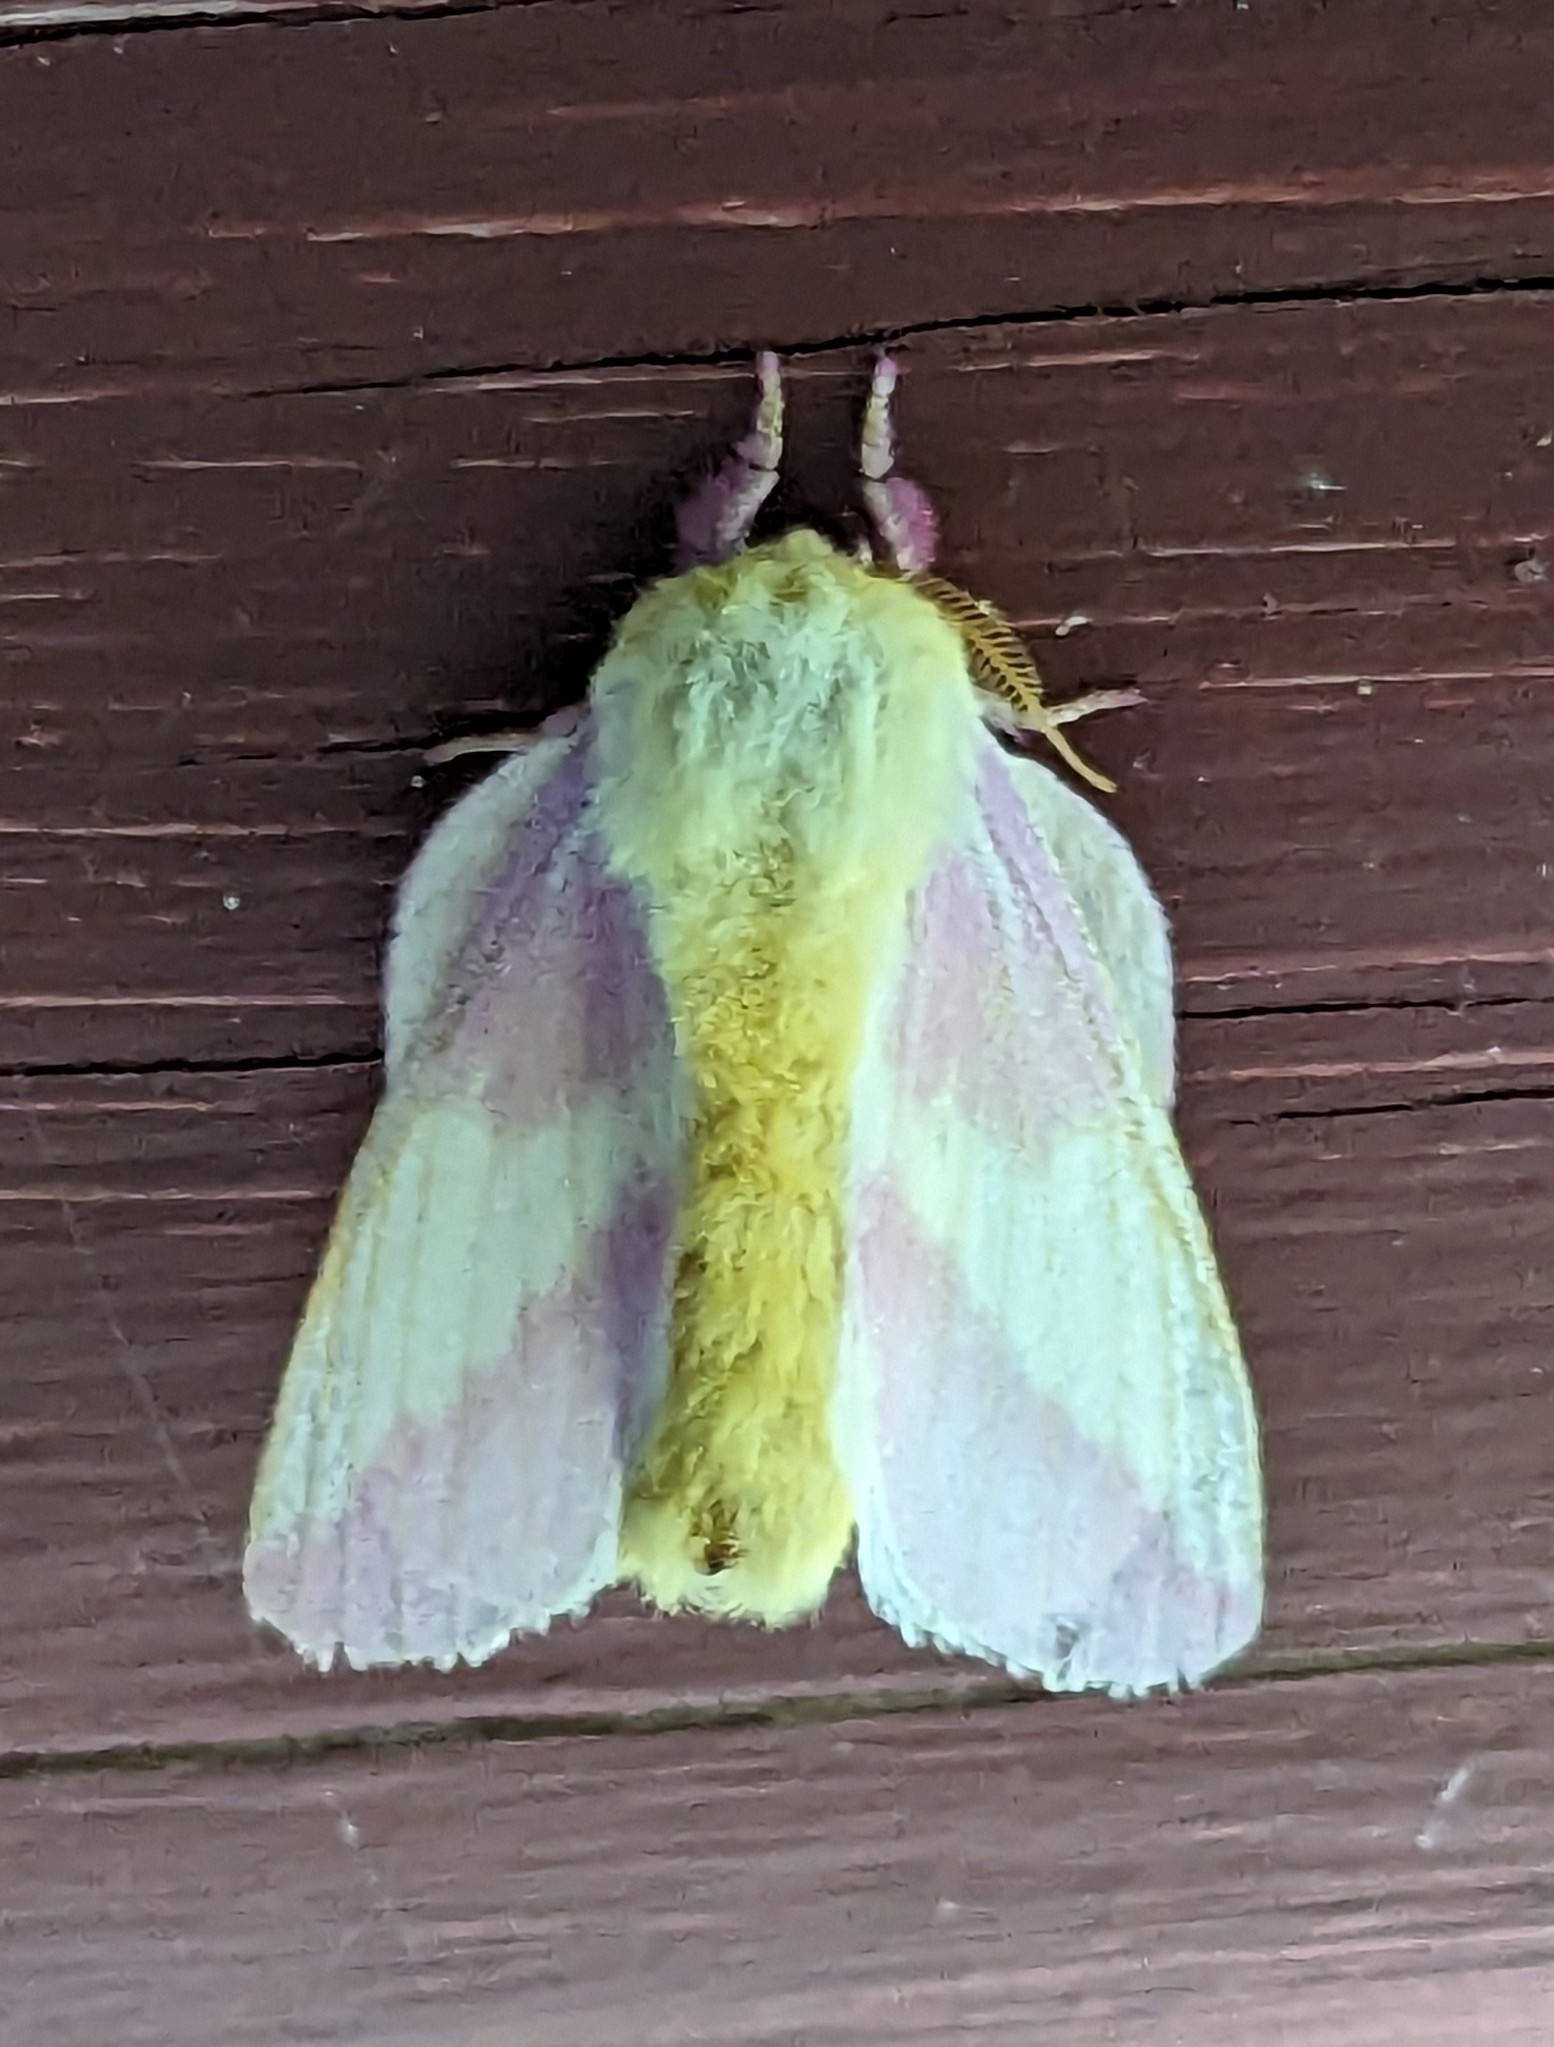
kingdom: Animalia
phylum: Arthropoda
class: Insecta
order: Lepidoptera
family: Saturniidae
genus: Dryocampa
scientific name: Dryocampa rubicunda
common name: Rosy maple moth
